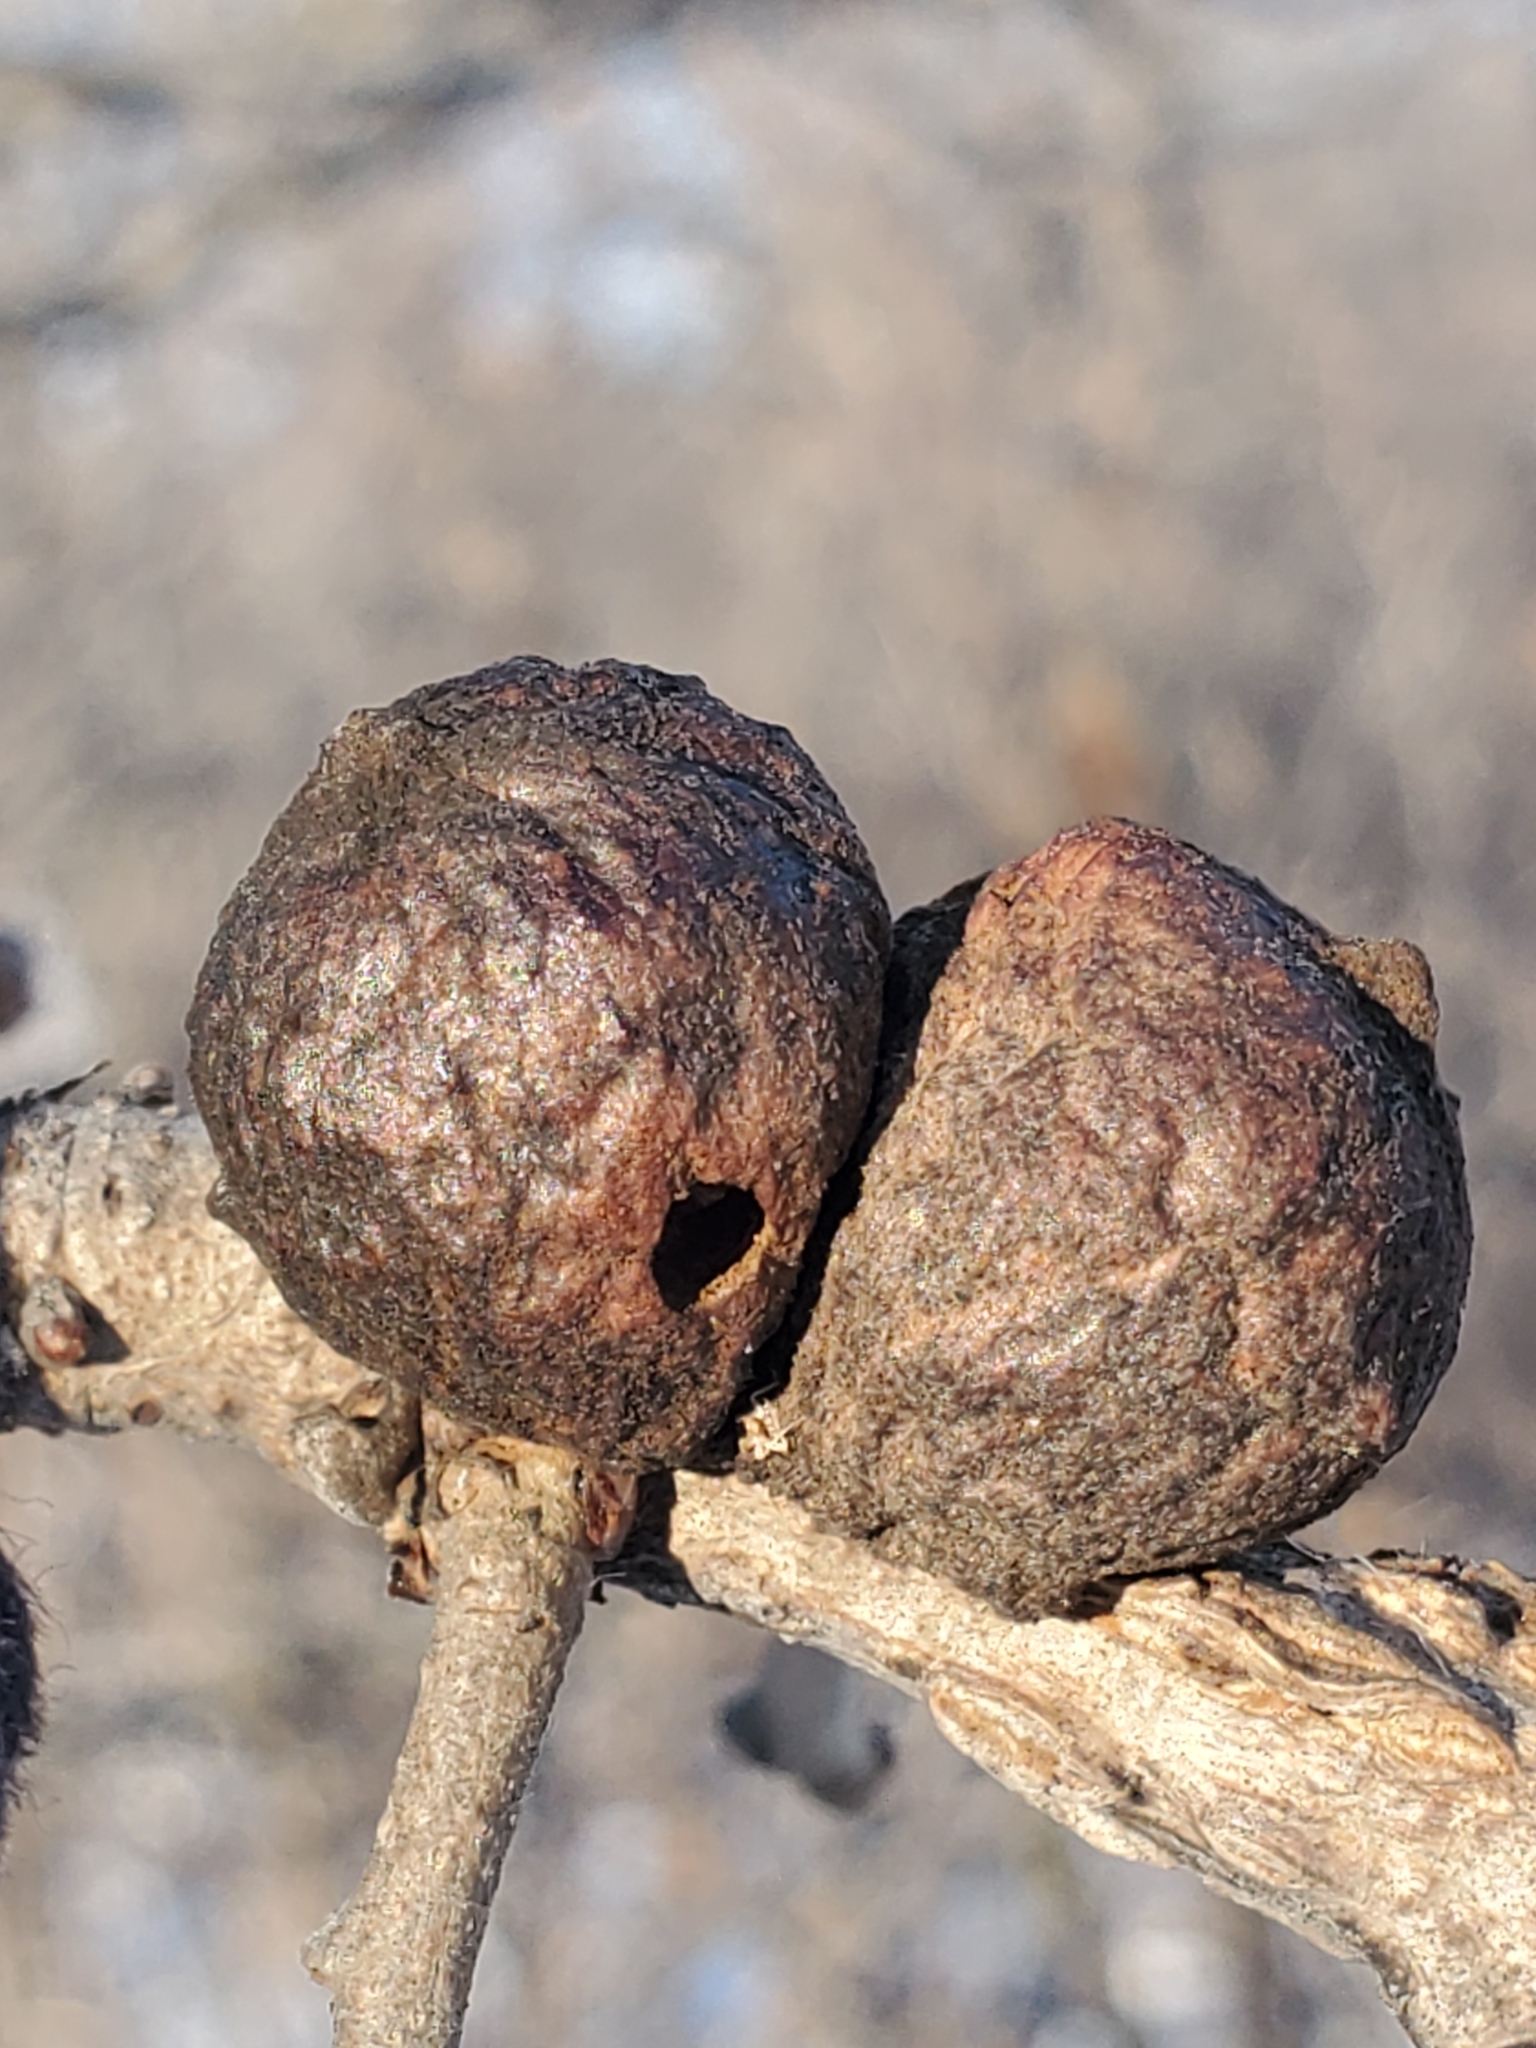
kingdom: Animalia
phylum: Arthropoda
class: Insecta
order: Hymenoptera
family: Cynipidae
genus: Disholcaspis
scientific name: Disholcaspis
